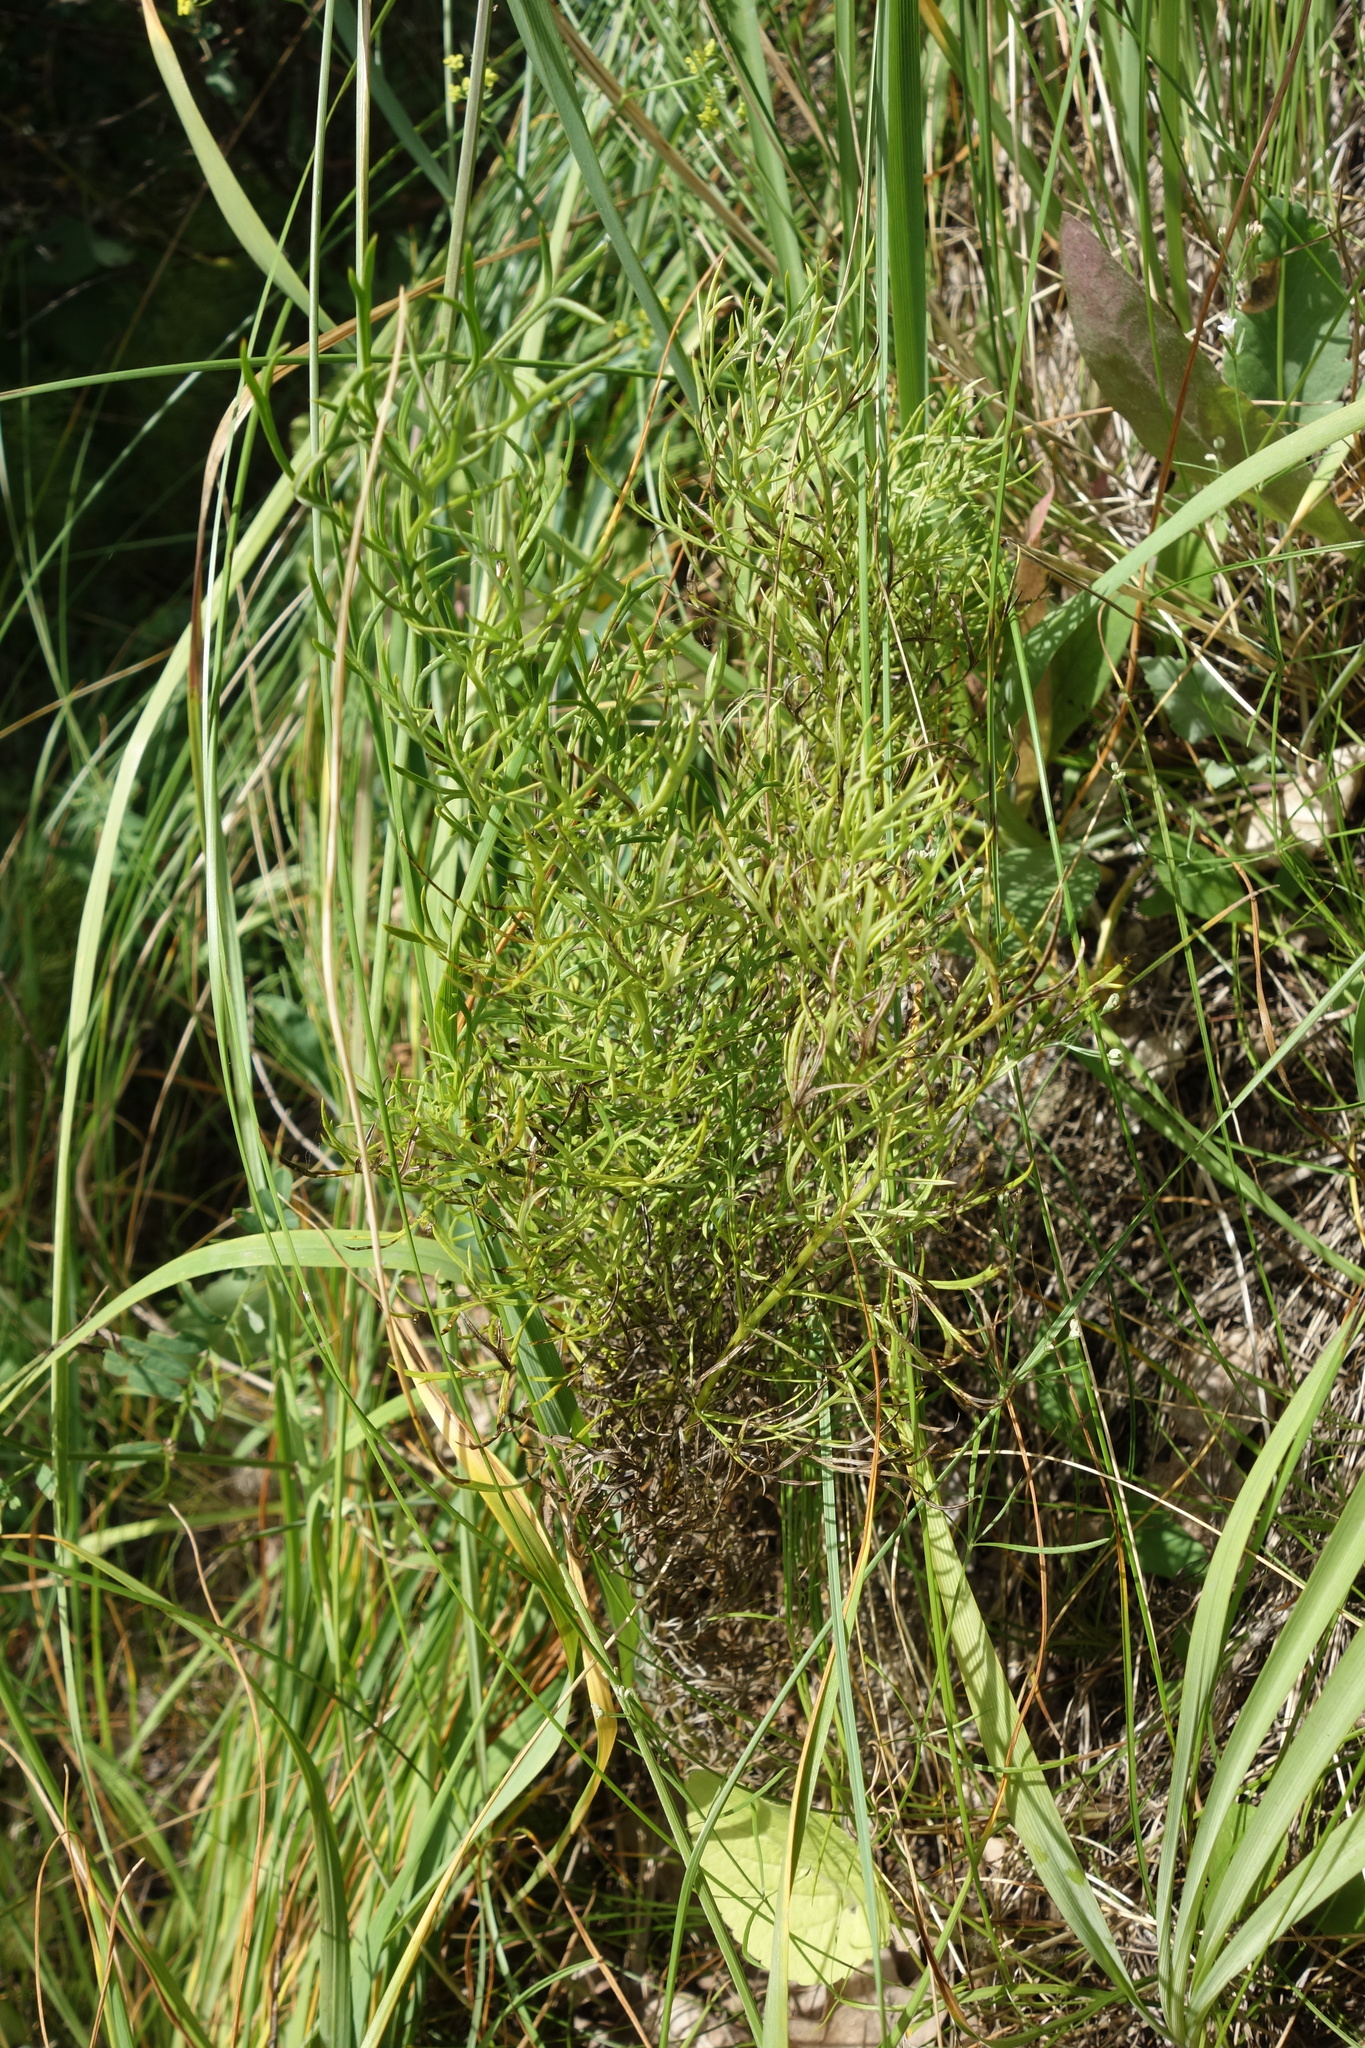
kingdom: Plantae
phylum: Tracheophyta
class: Magnoliopsida
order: Ranunculales
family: Ranunculaceae
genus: Adonis
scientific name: Adonis vernalis
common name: Yellow pheasants-eye
